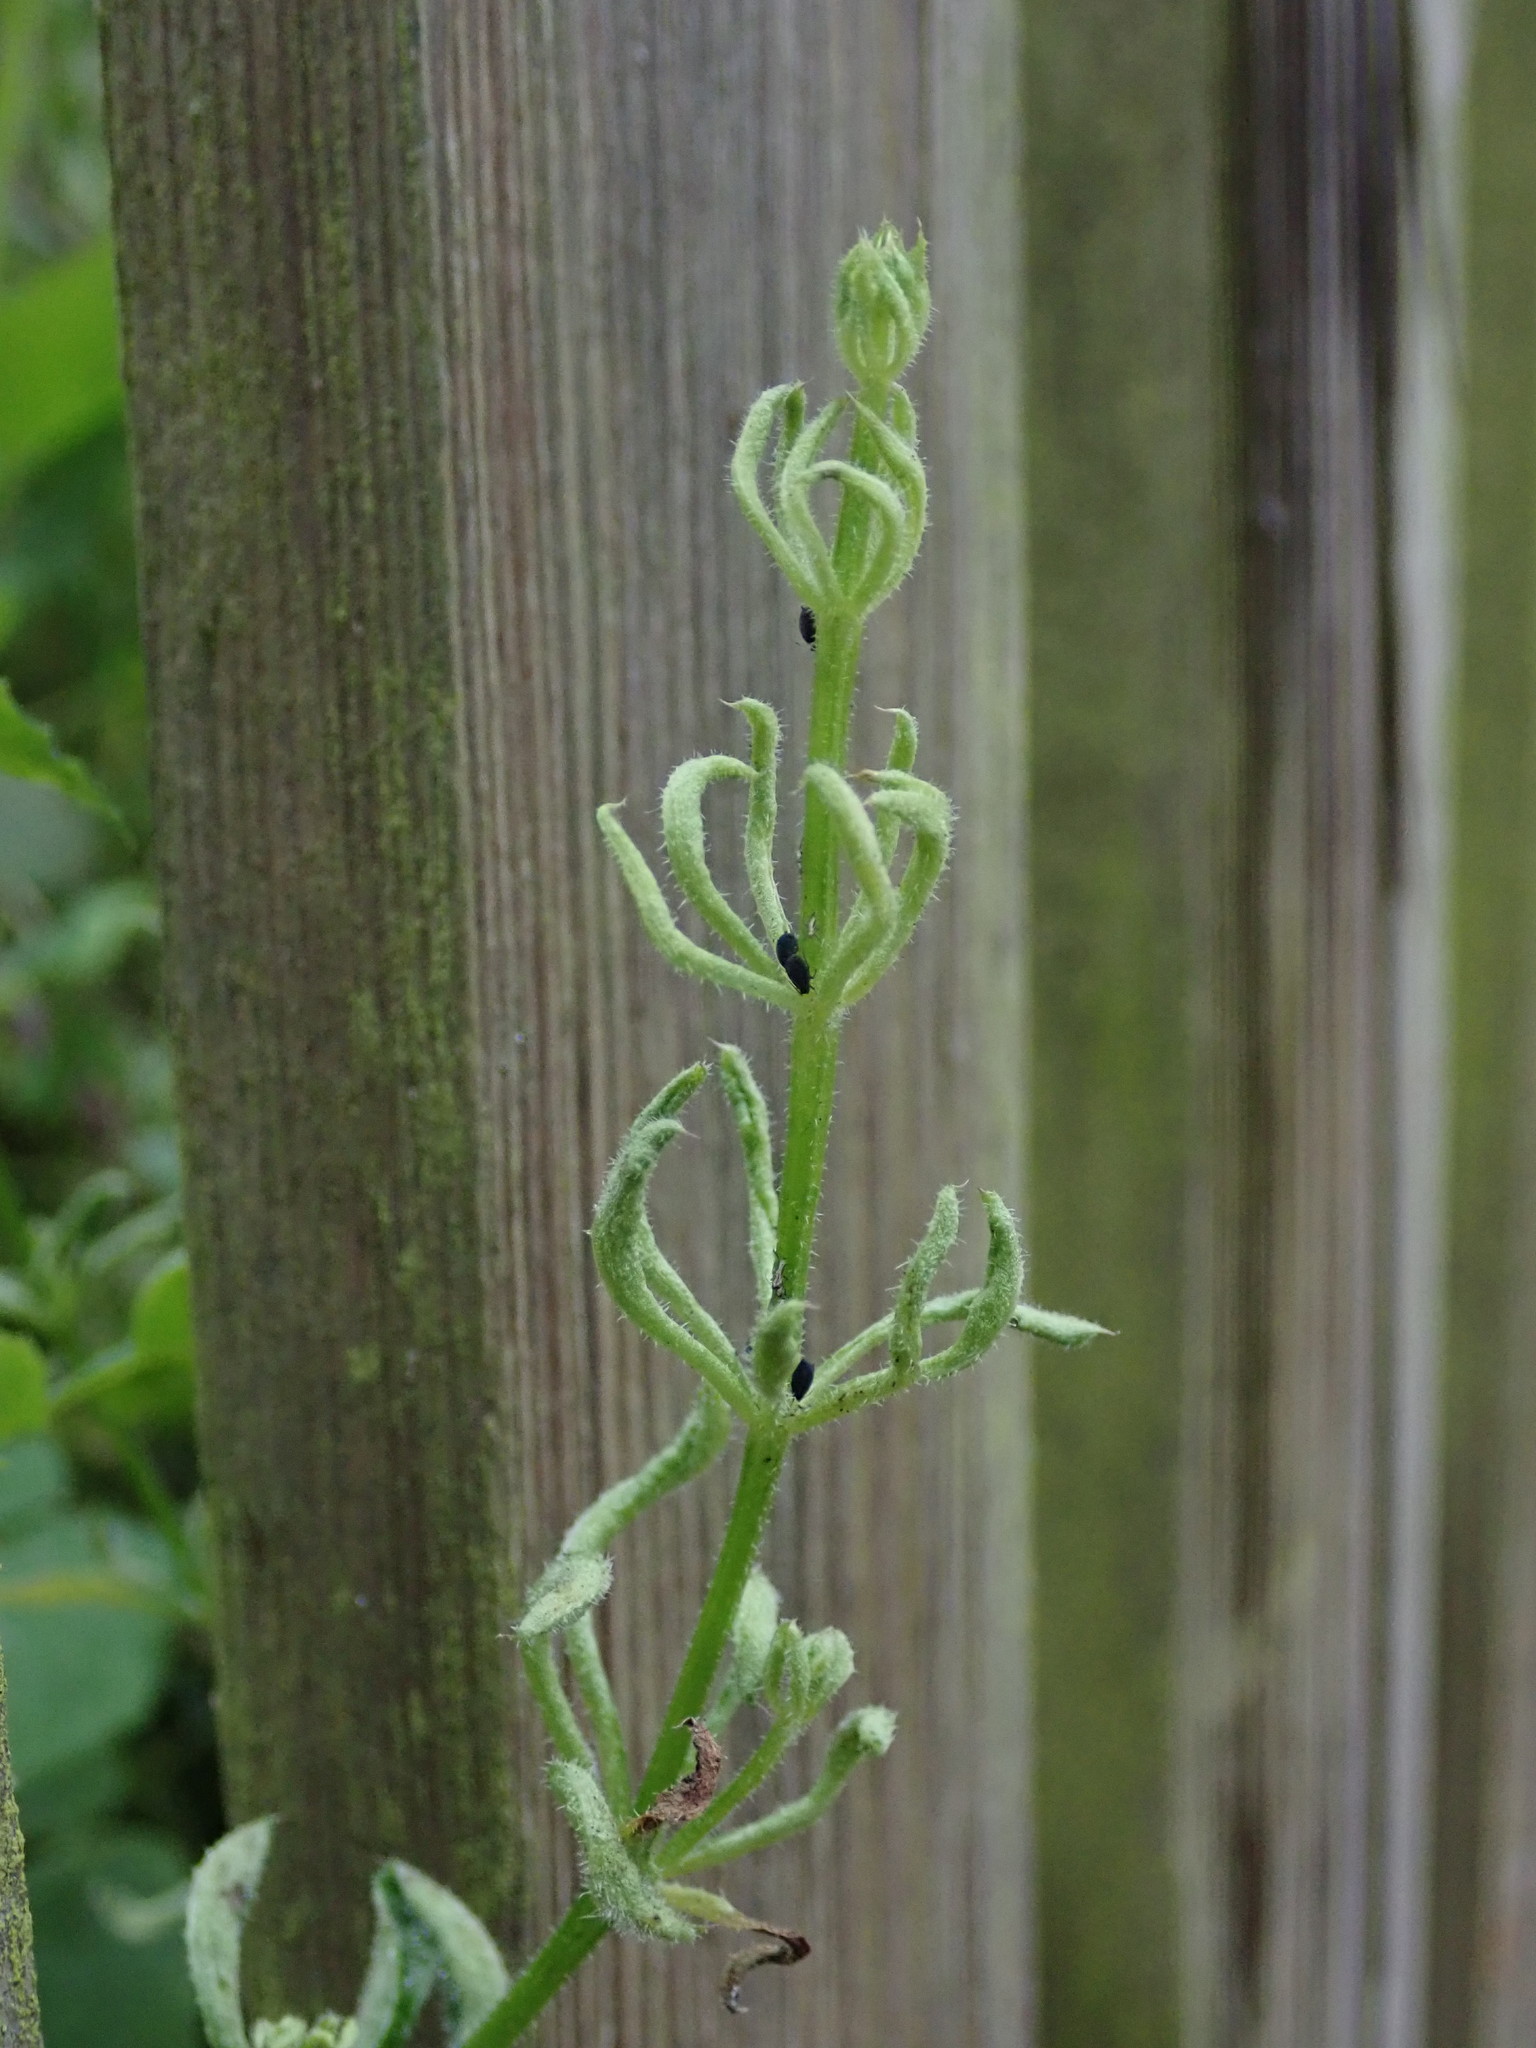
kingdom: Animalia
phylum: Arthropoda
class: Arachnida
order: Trombidiformes
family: Eriophyidae
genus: Cecidophyes
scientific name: Cecidophyes rouhollahi
